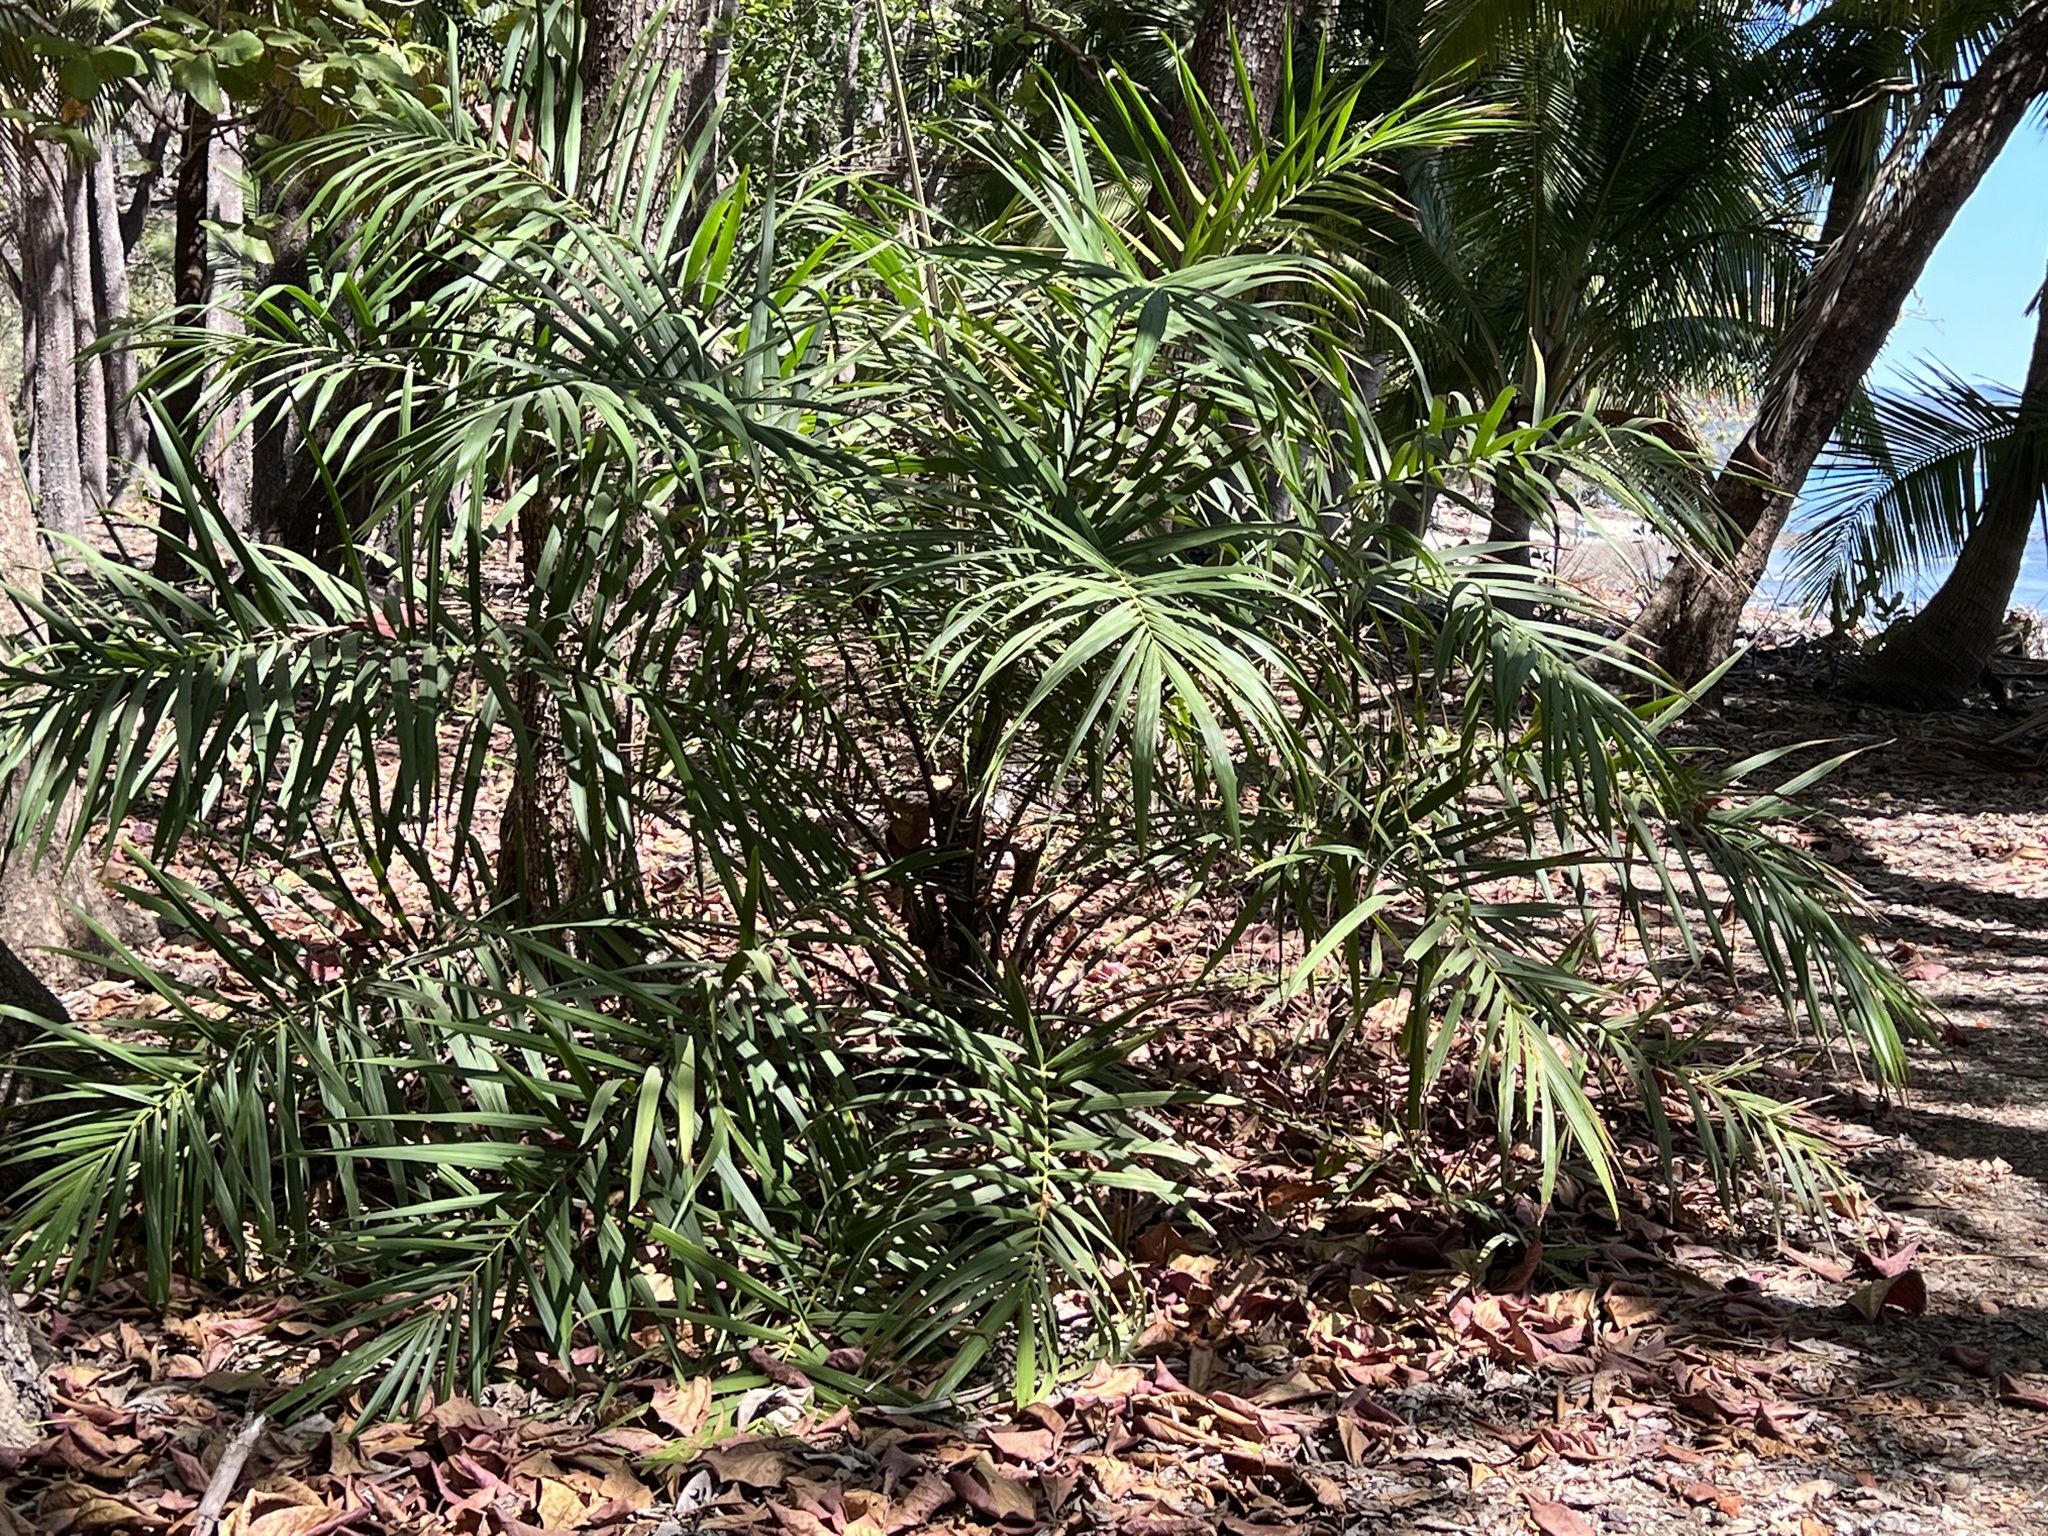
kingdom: Plantae
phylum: Tracheophyta
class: Liliopsida
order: Arecales
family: Arecaceae
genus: Phoenix
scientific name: Phoenix roebelenii
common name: Roebelin palm
